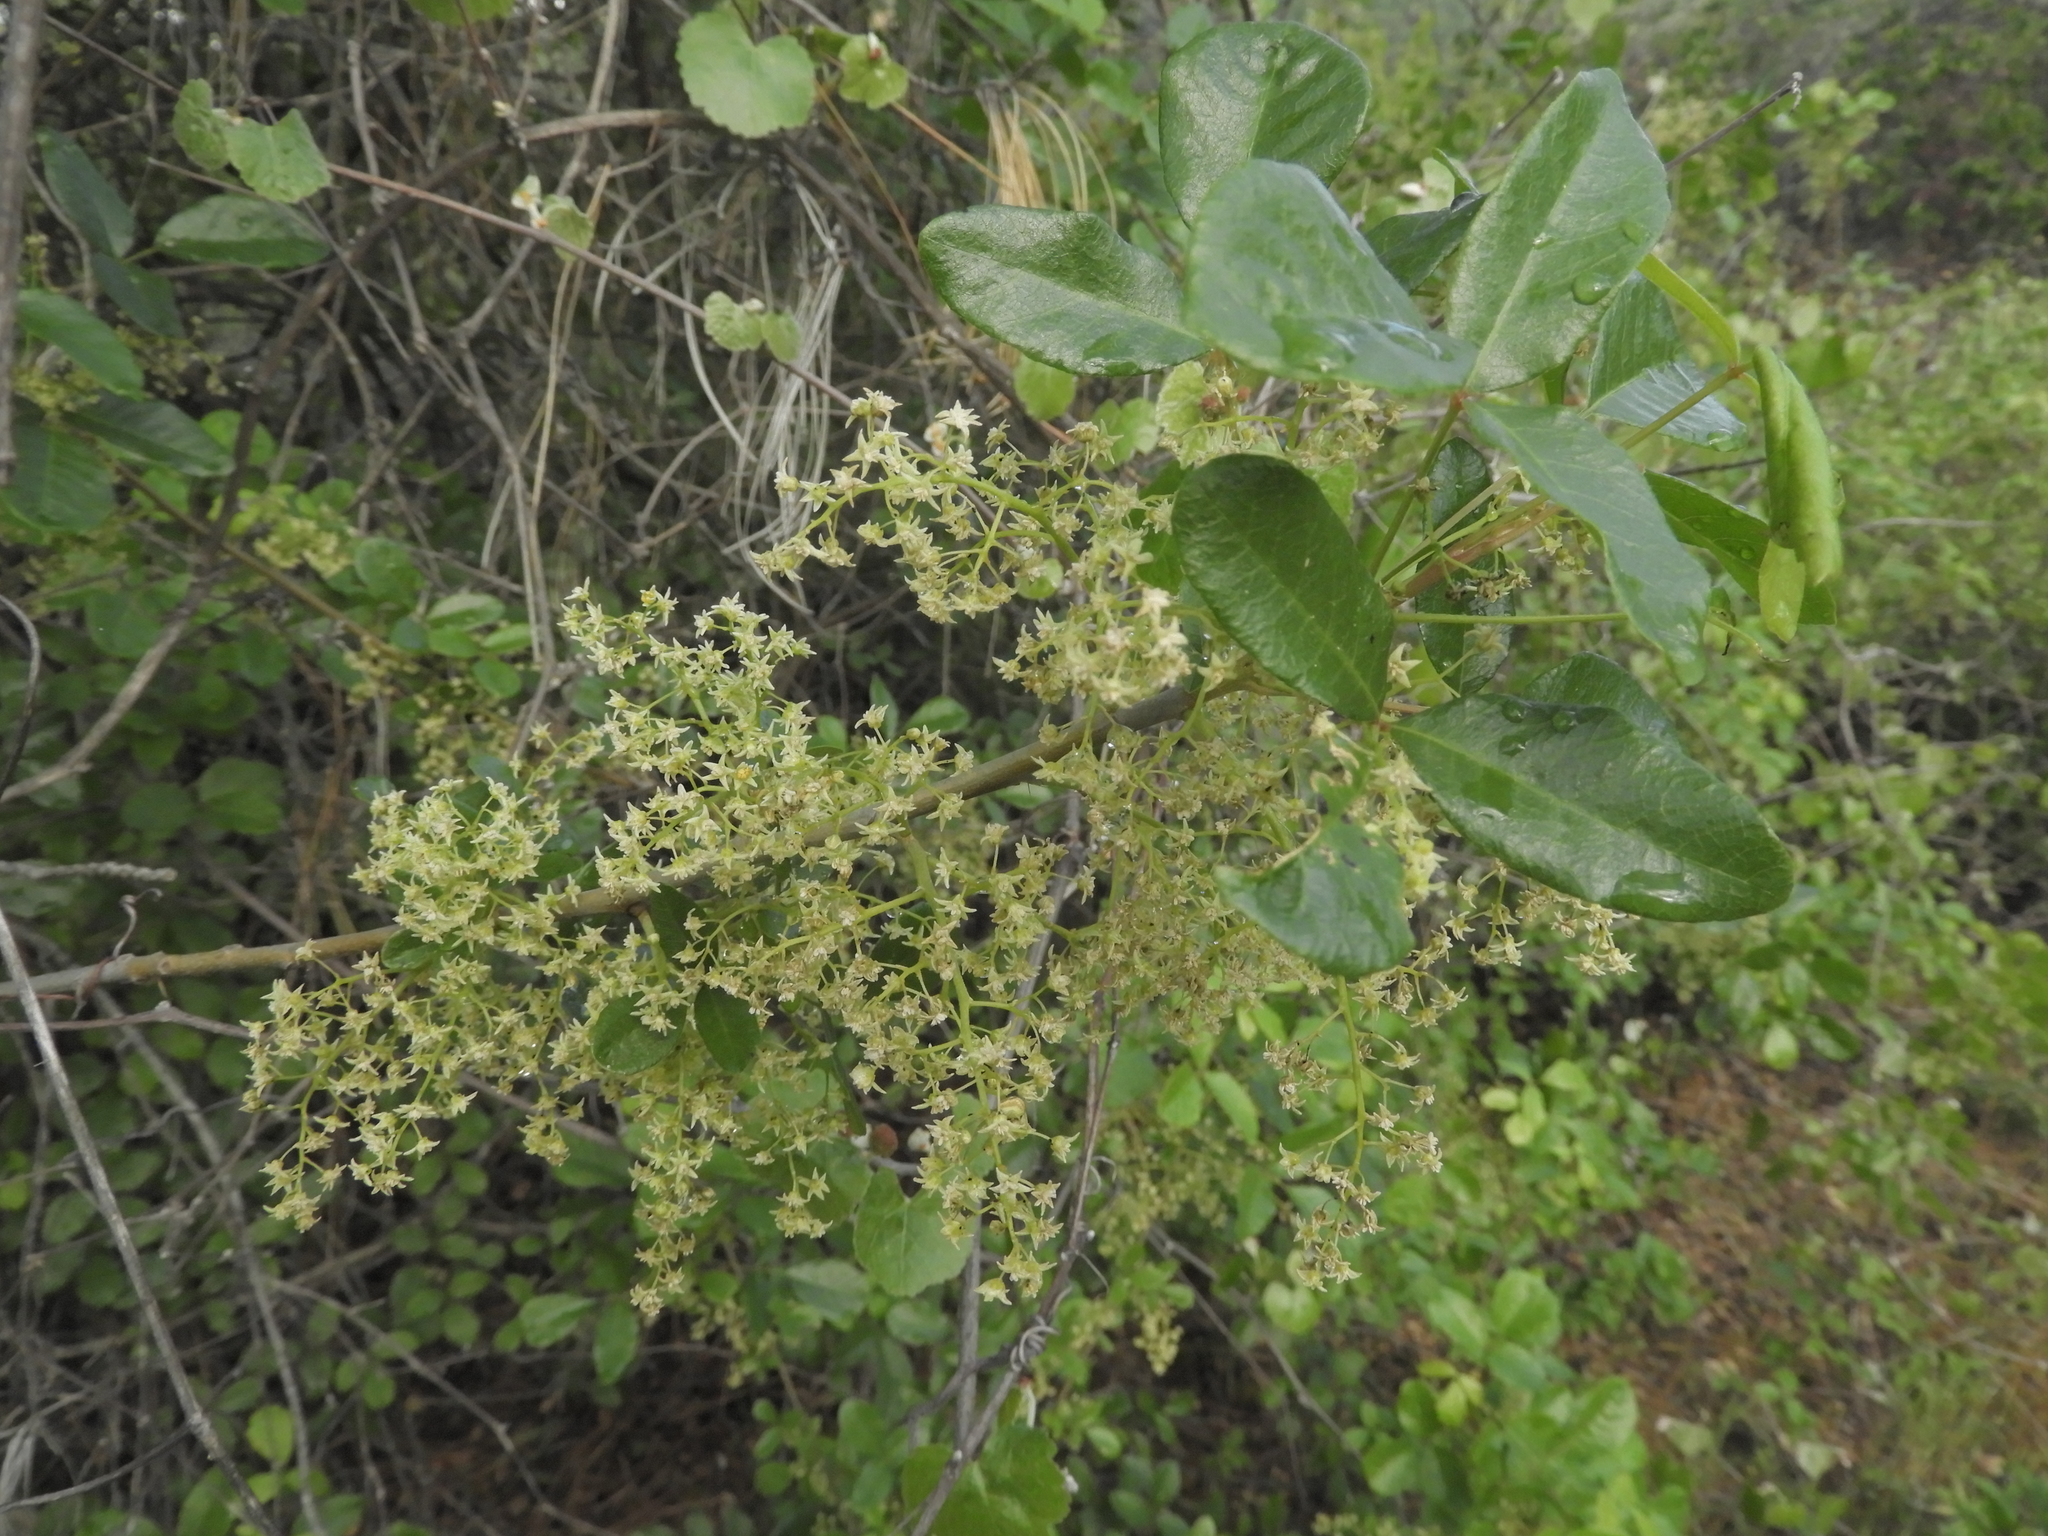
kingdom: Plantae
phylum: Tracheophyta
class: Magnoliopsida
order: Sapindales
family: Anacardiaceae
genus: Toxicodendron
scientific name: Toxicodendron diversilobum
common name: Pacific poison-oak
